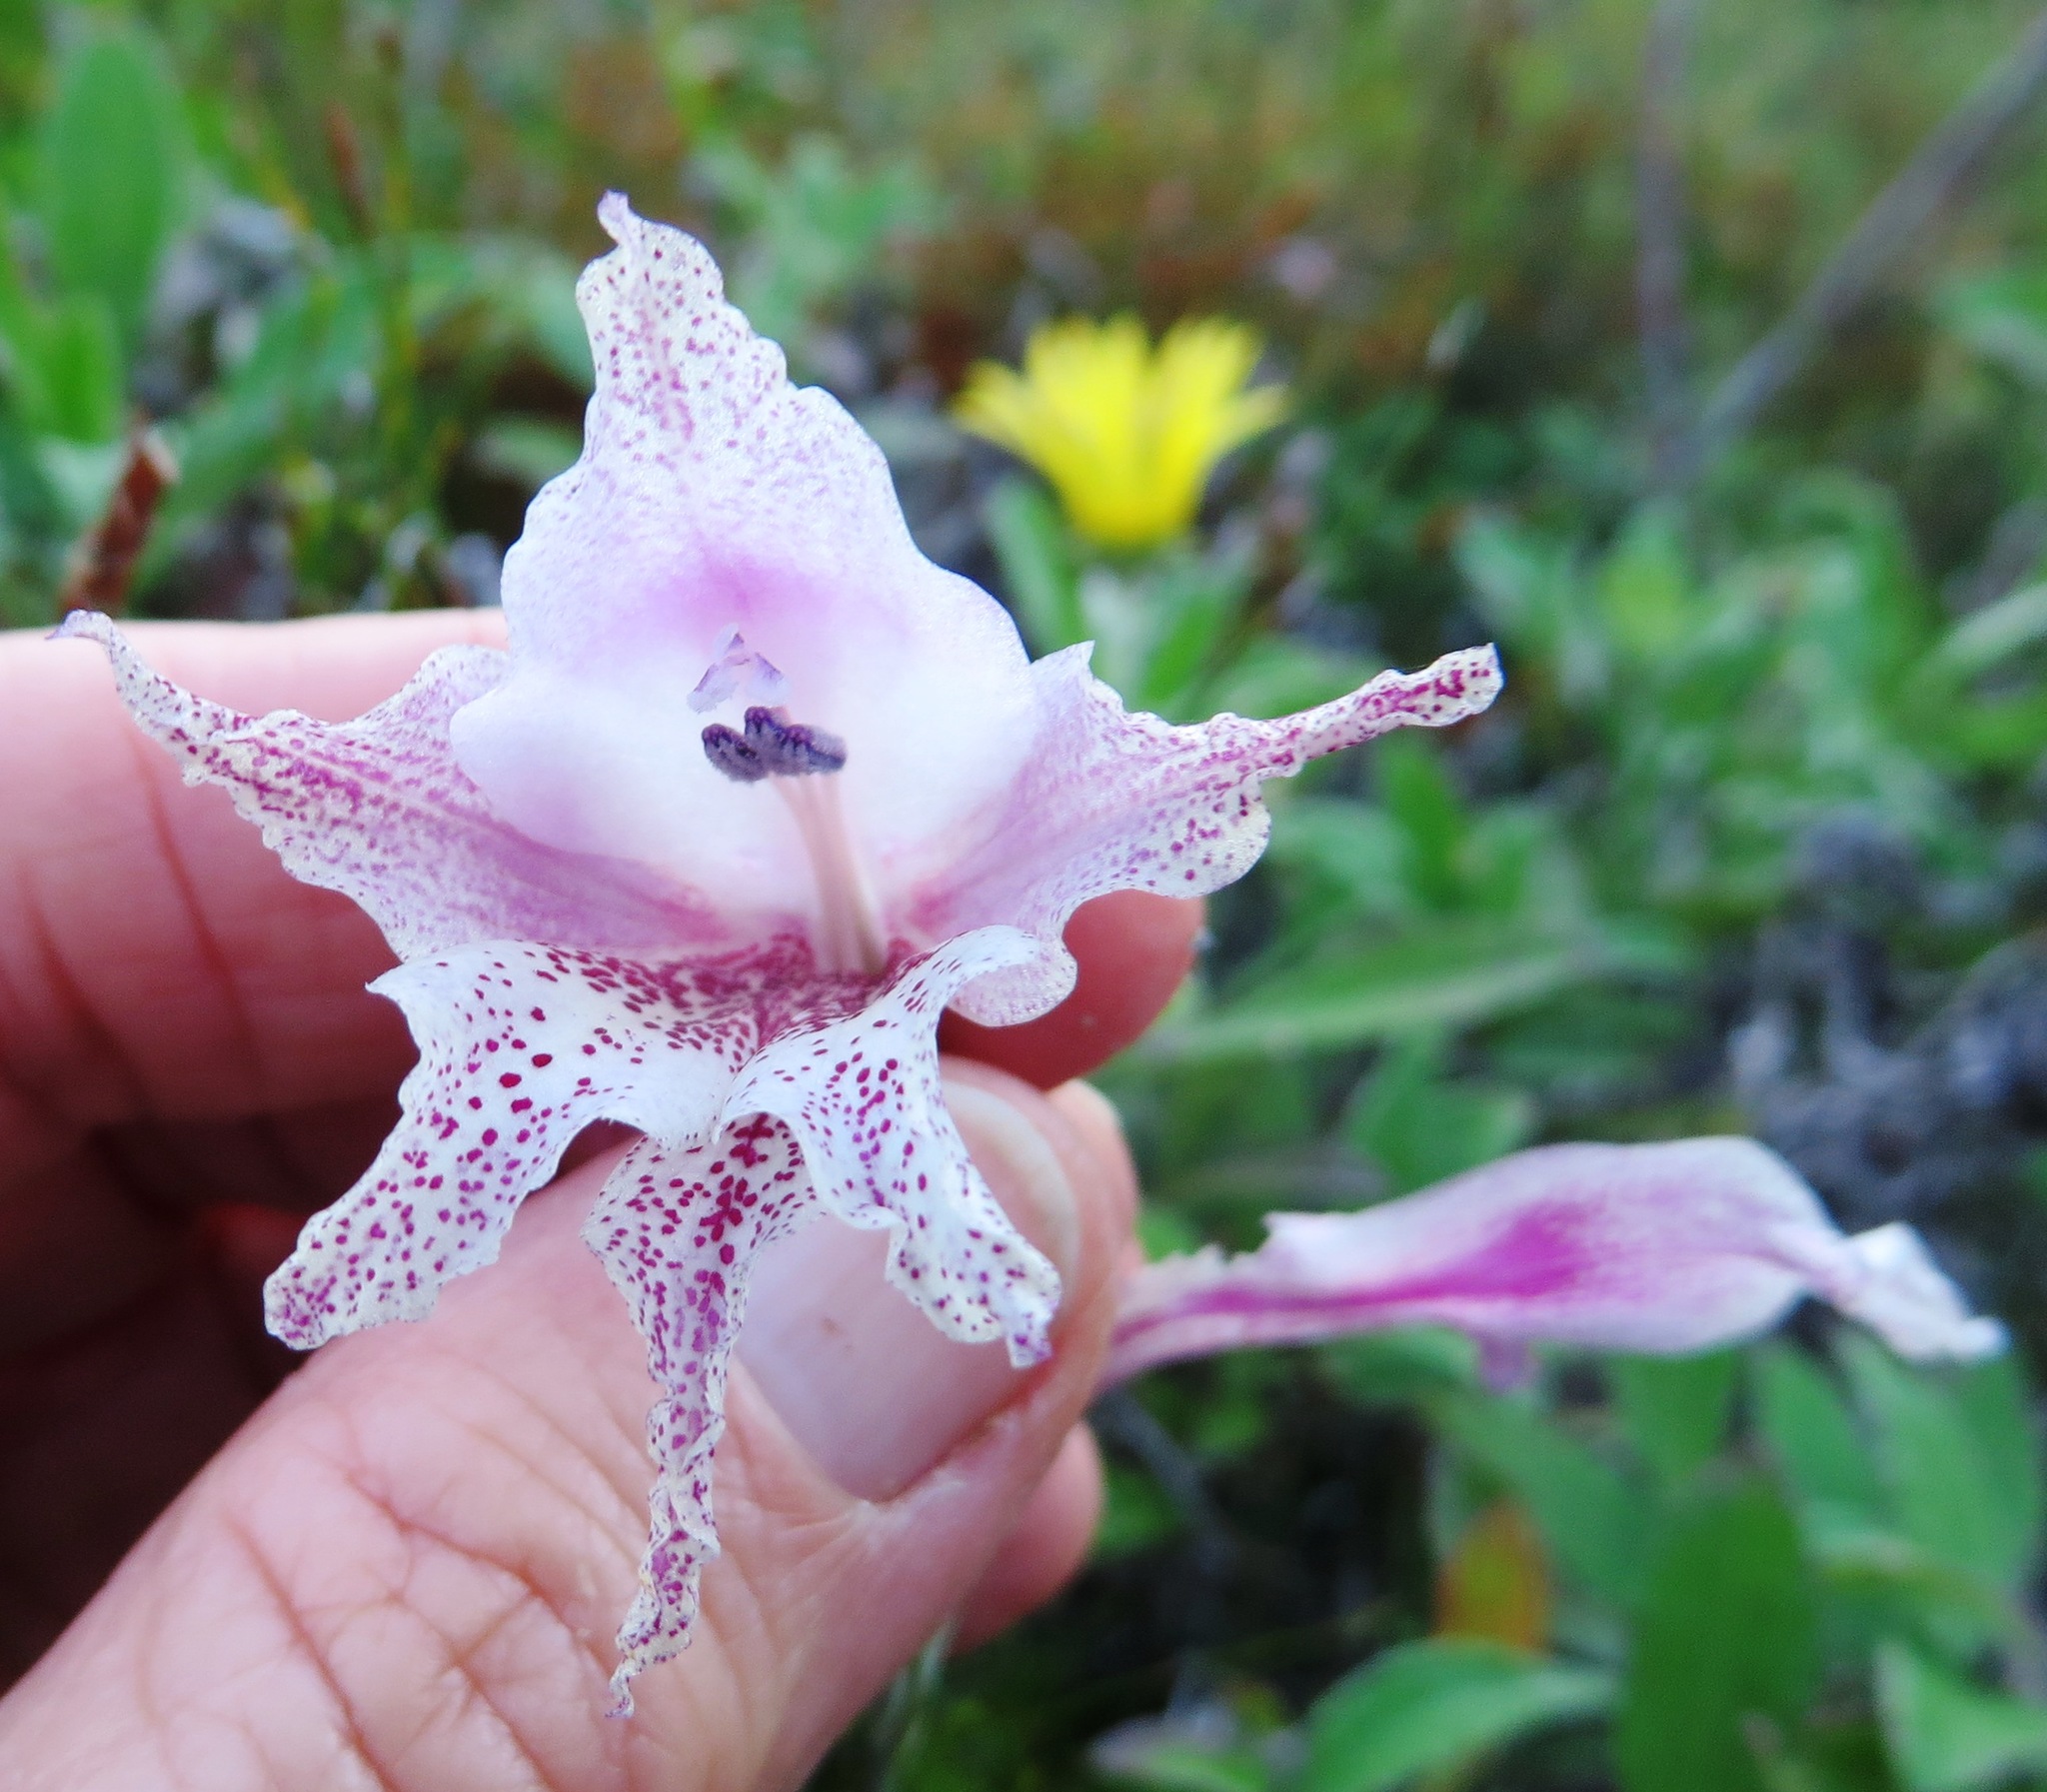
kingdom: Plantae
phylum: Tracheophyta
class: Liliopsida
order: Asparagales
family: Iridaceae
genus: Gladiolus
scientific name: Gladiolus maculatus
